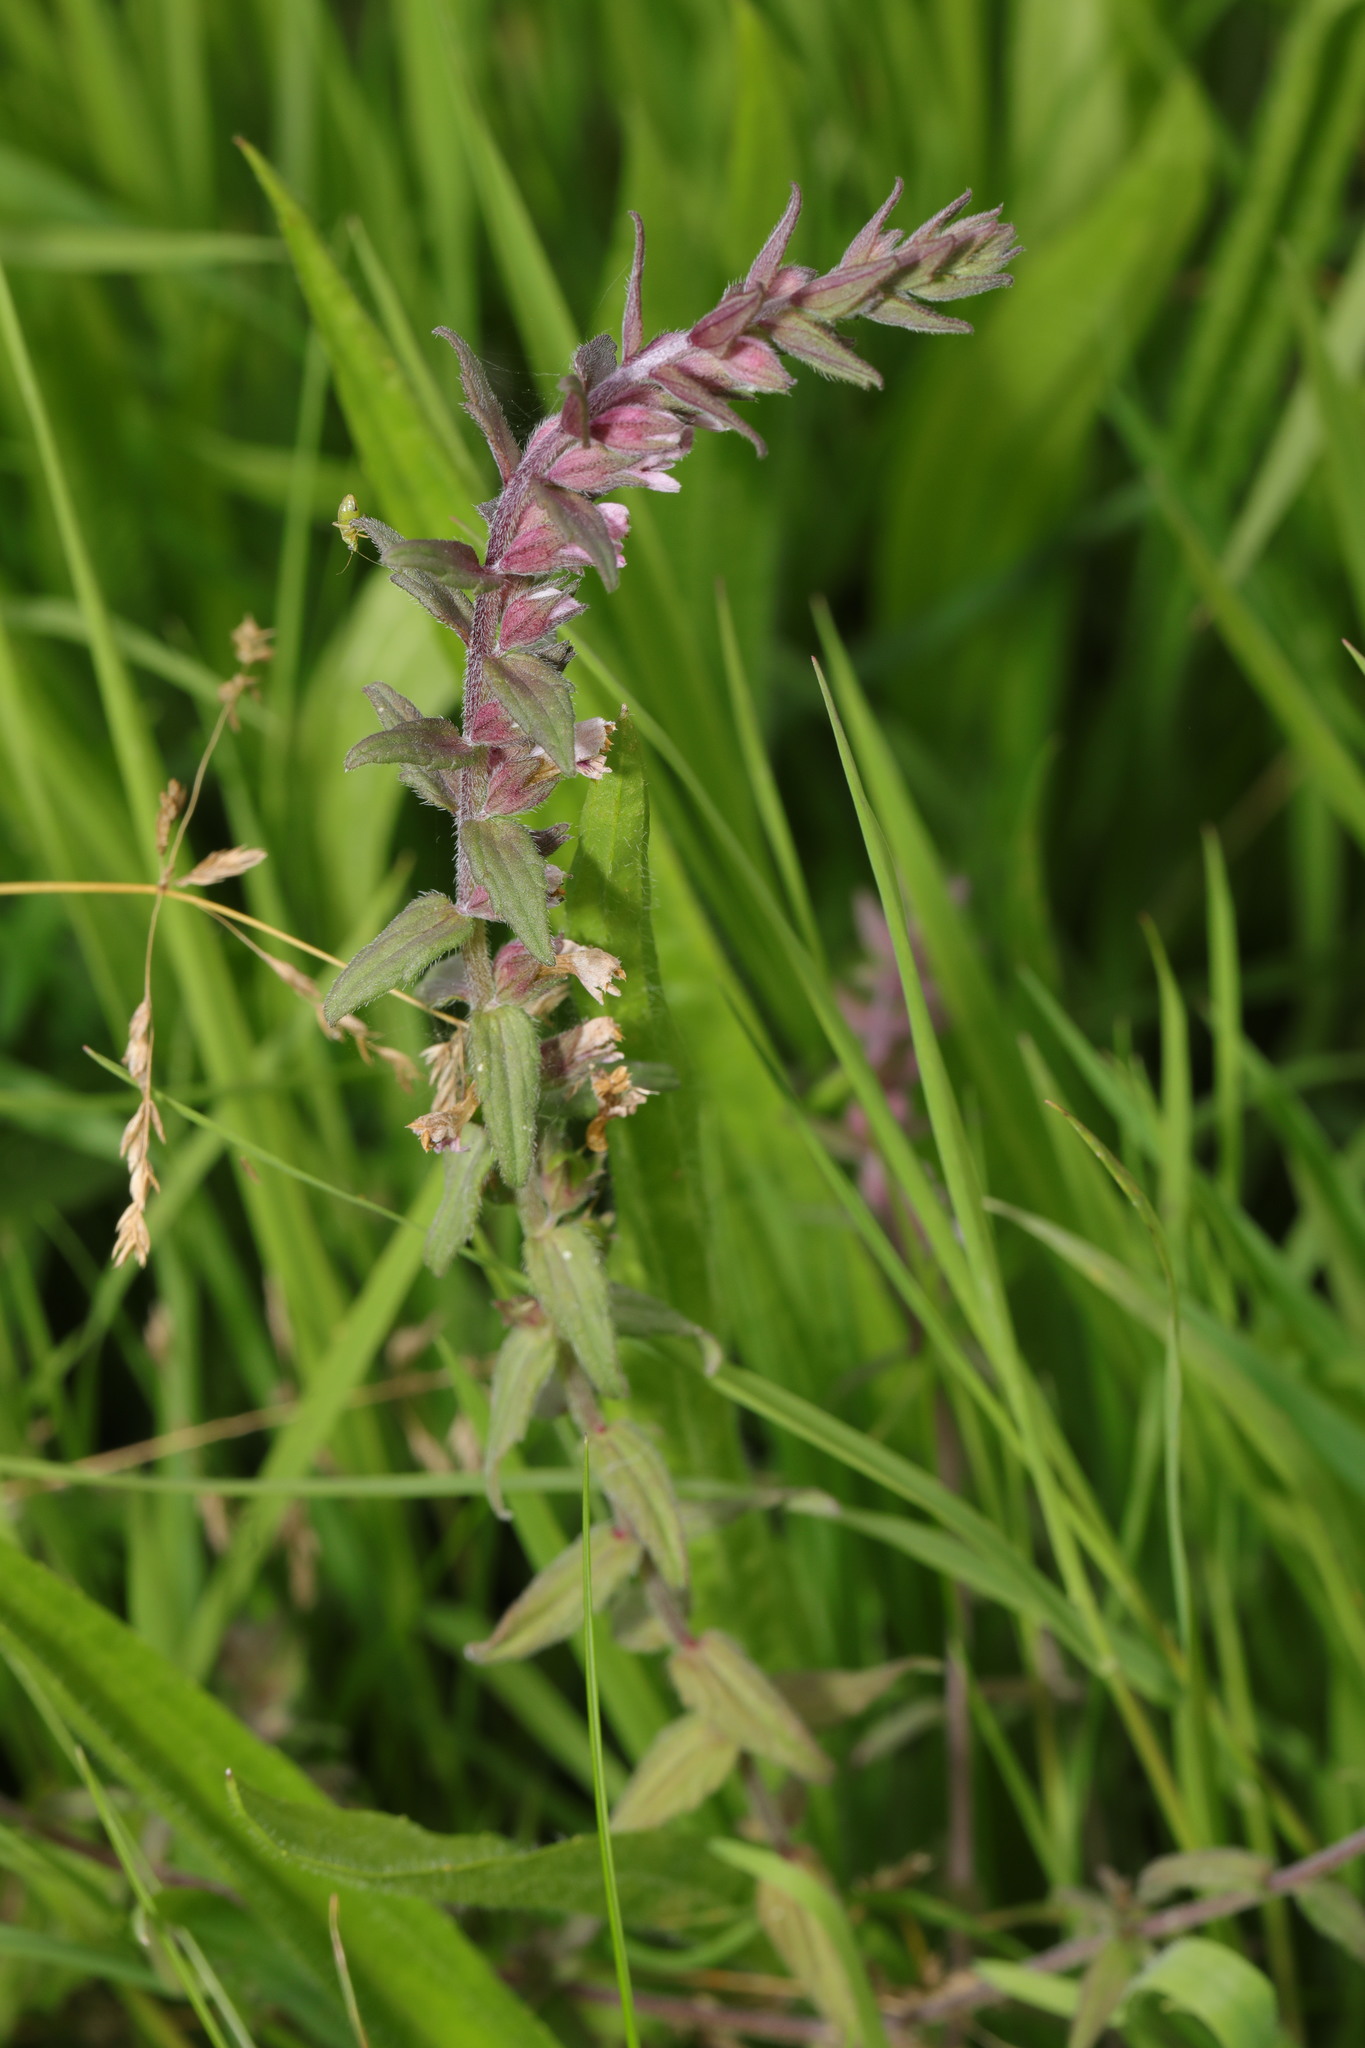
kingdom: Plantae
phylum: Tracheophyta
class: Magnoliopsida
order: Lamiales
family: Orobanchaceae
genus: Odontites
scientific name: Odontites vulgaris
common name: Broomrape
